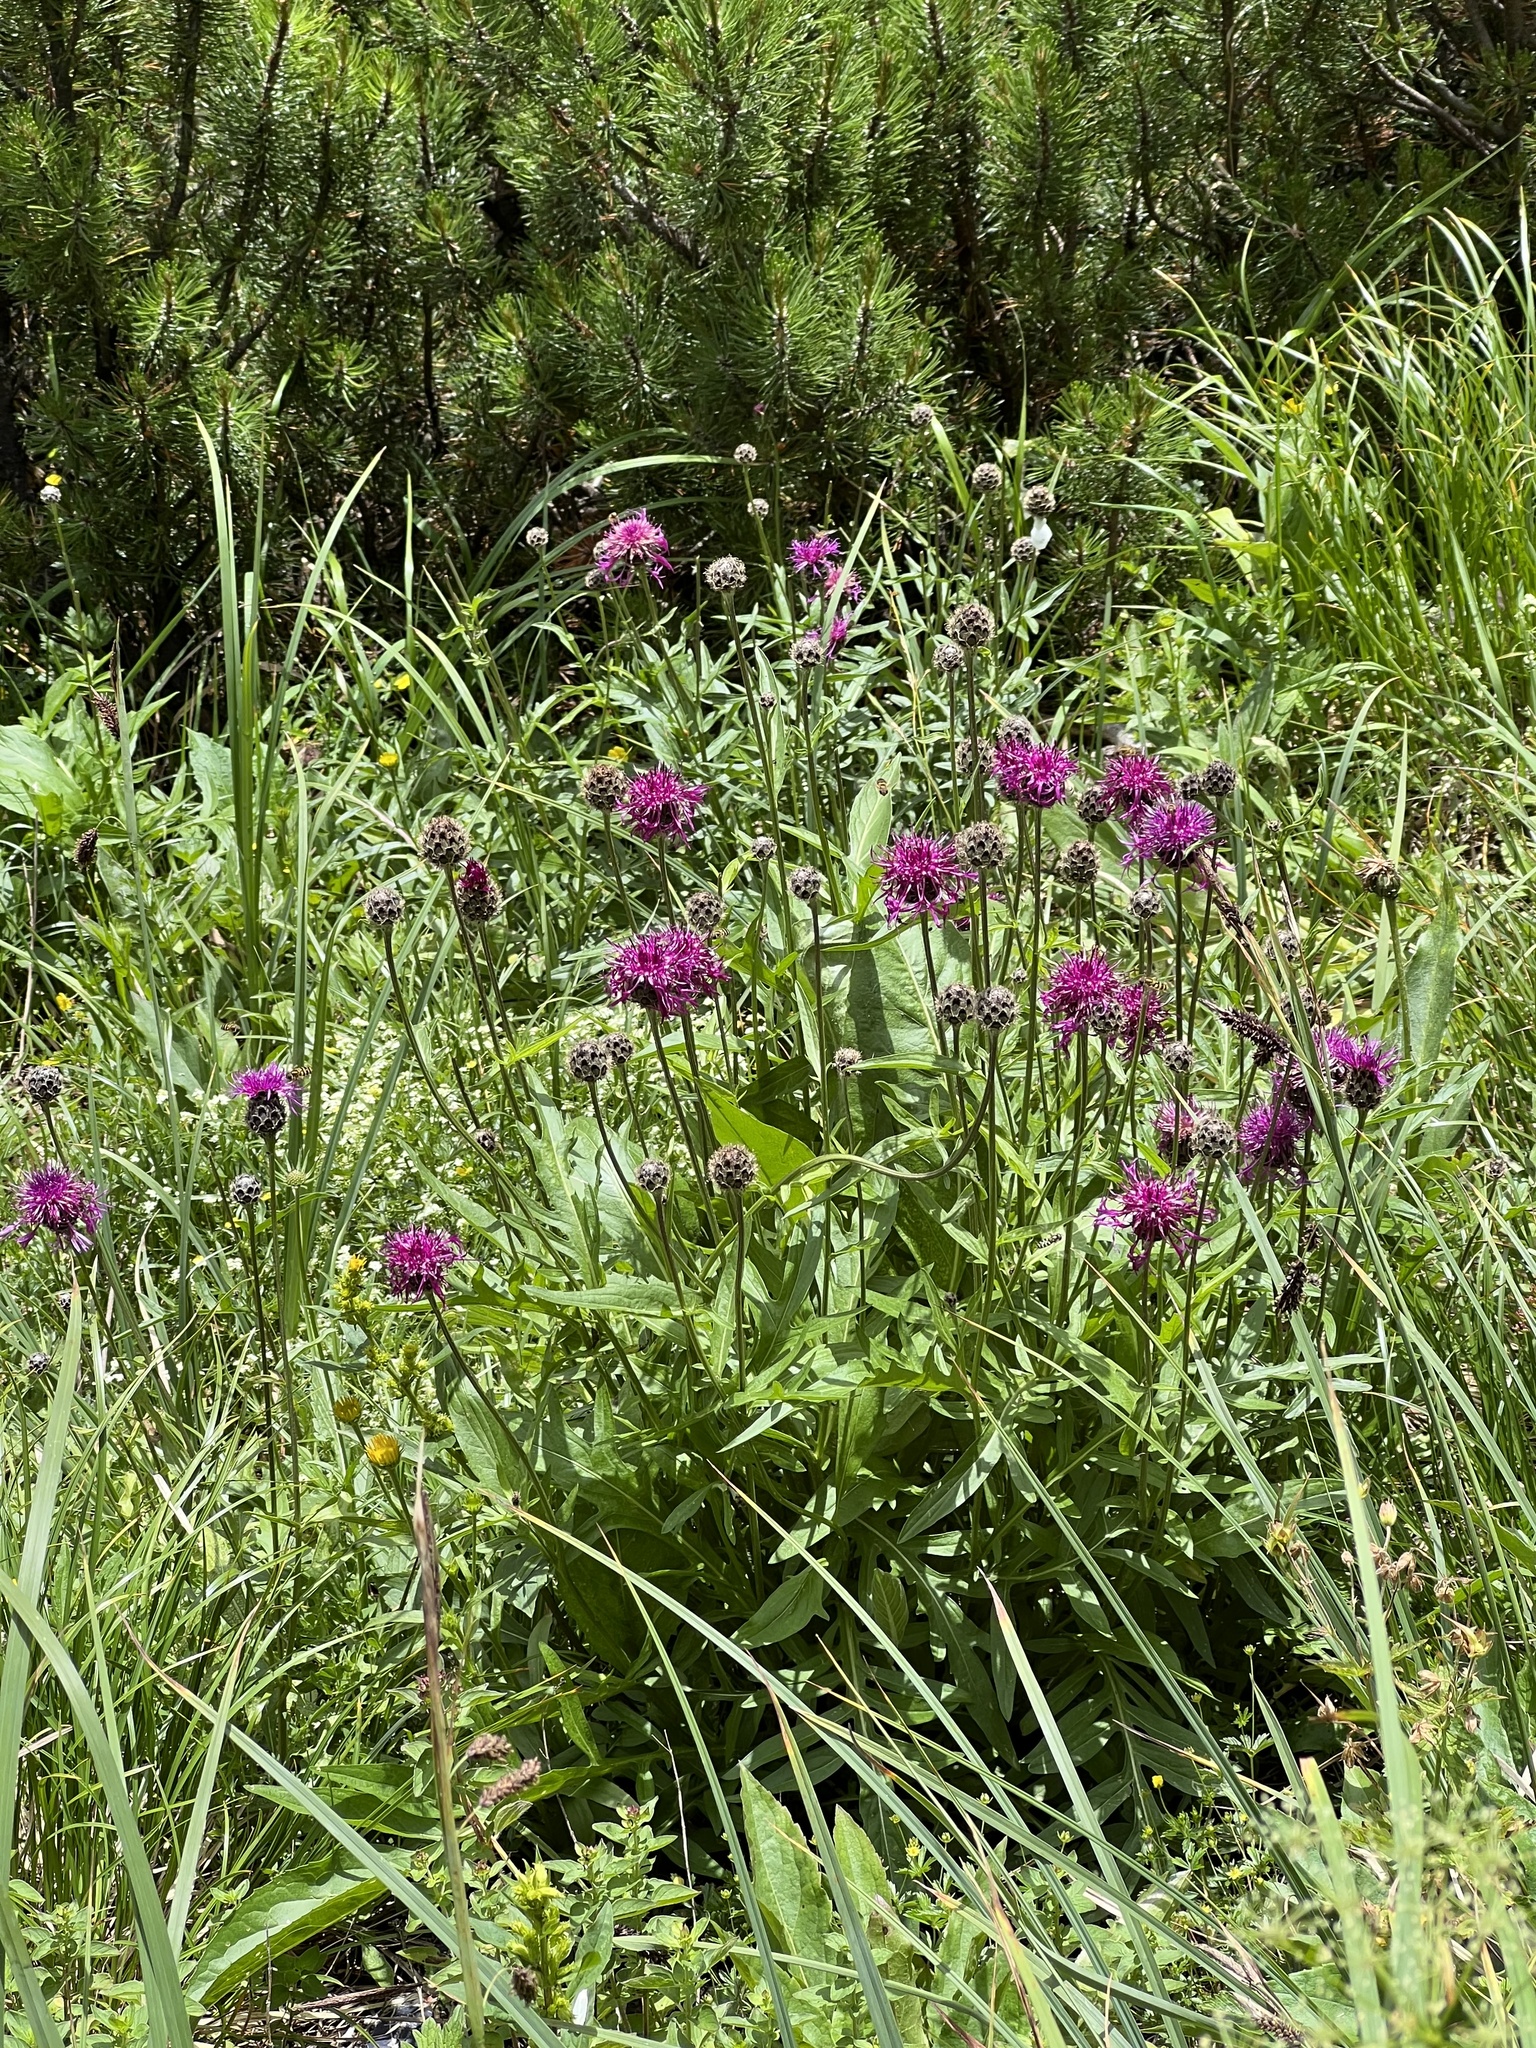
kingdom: Plantae
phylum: Tracheophyta
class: Magnoliopsida
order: Asterales
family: Asteraceae
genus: Centaurea
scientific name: Centaurea scabiosa
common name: Greater knapweed
